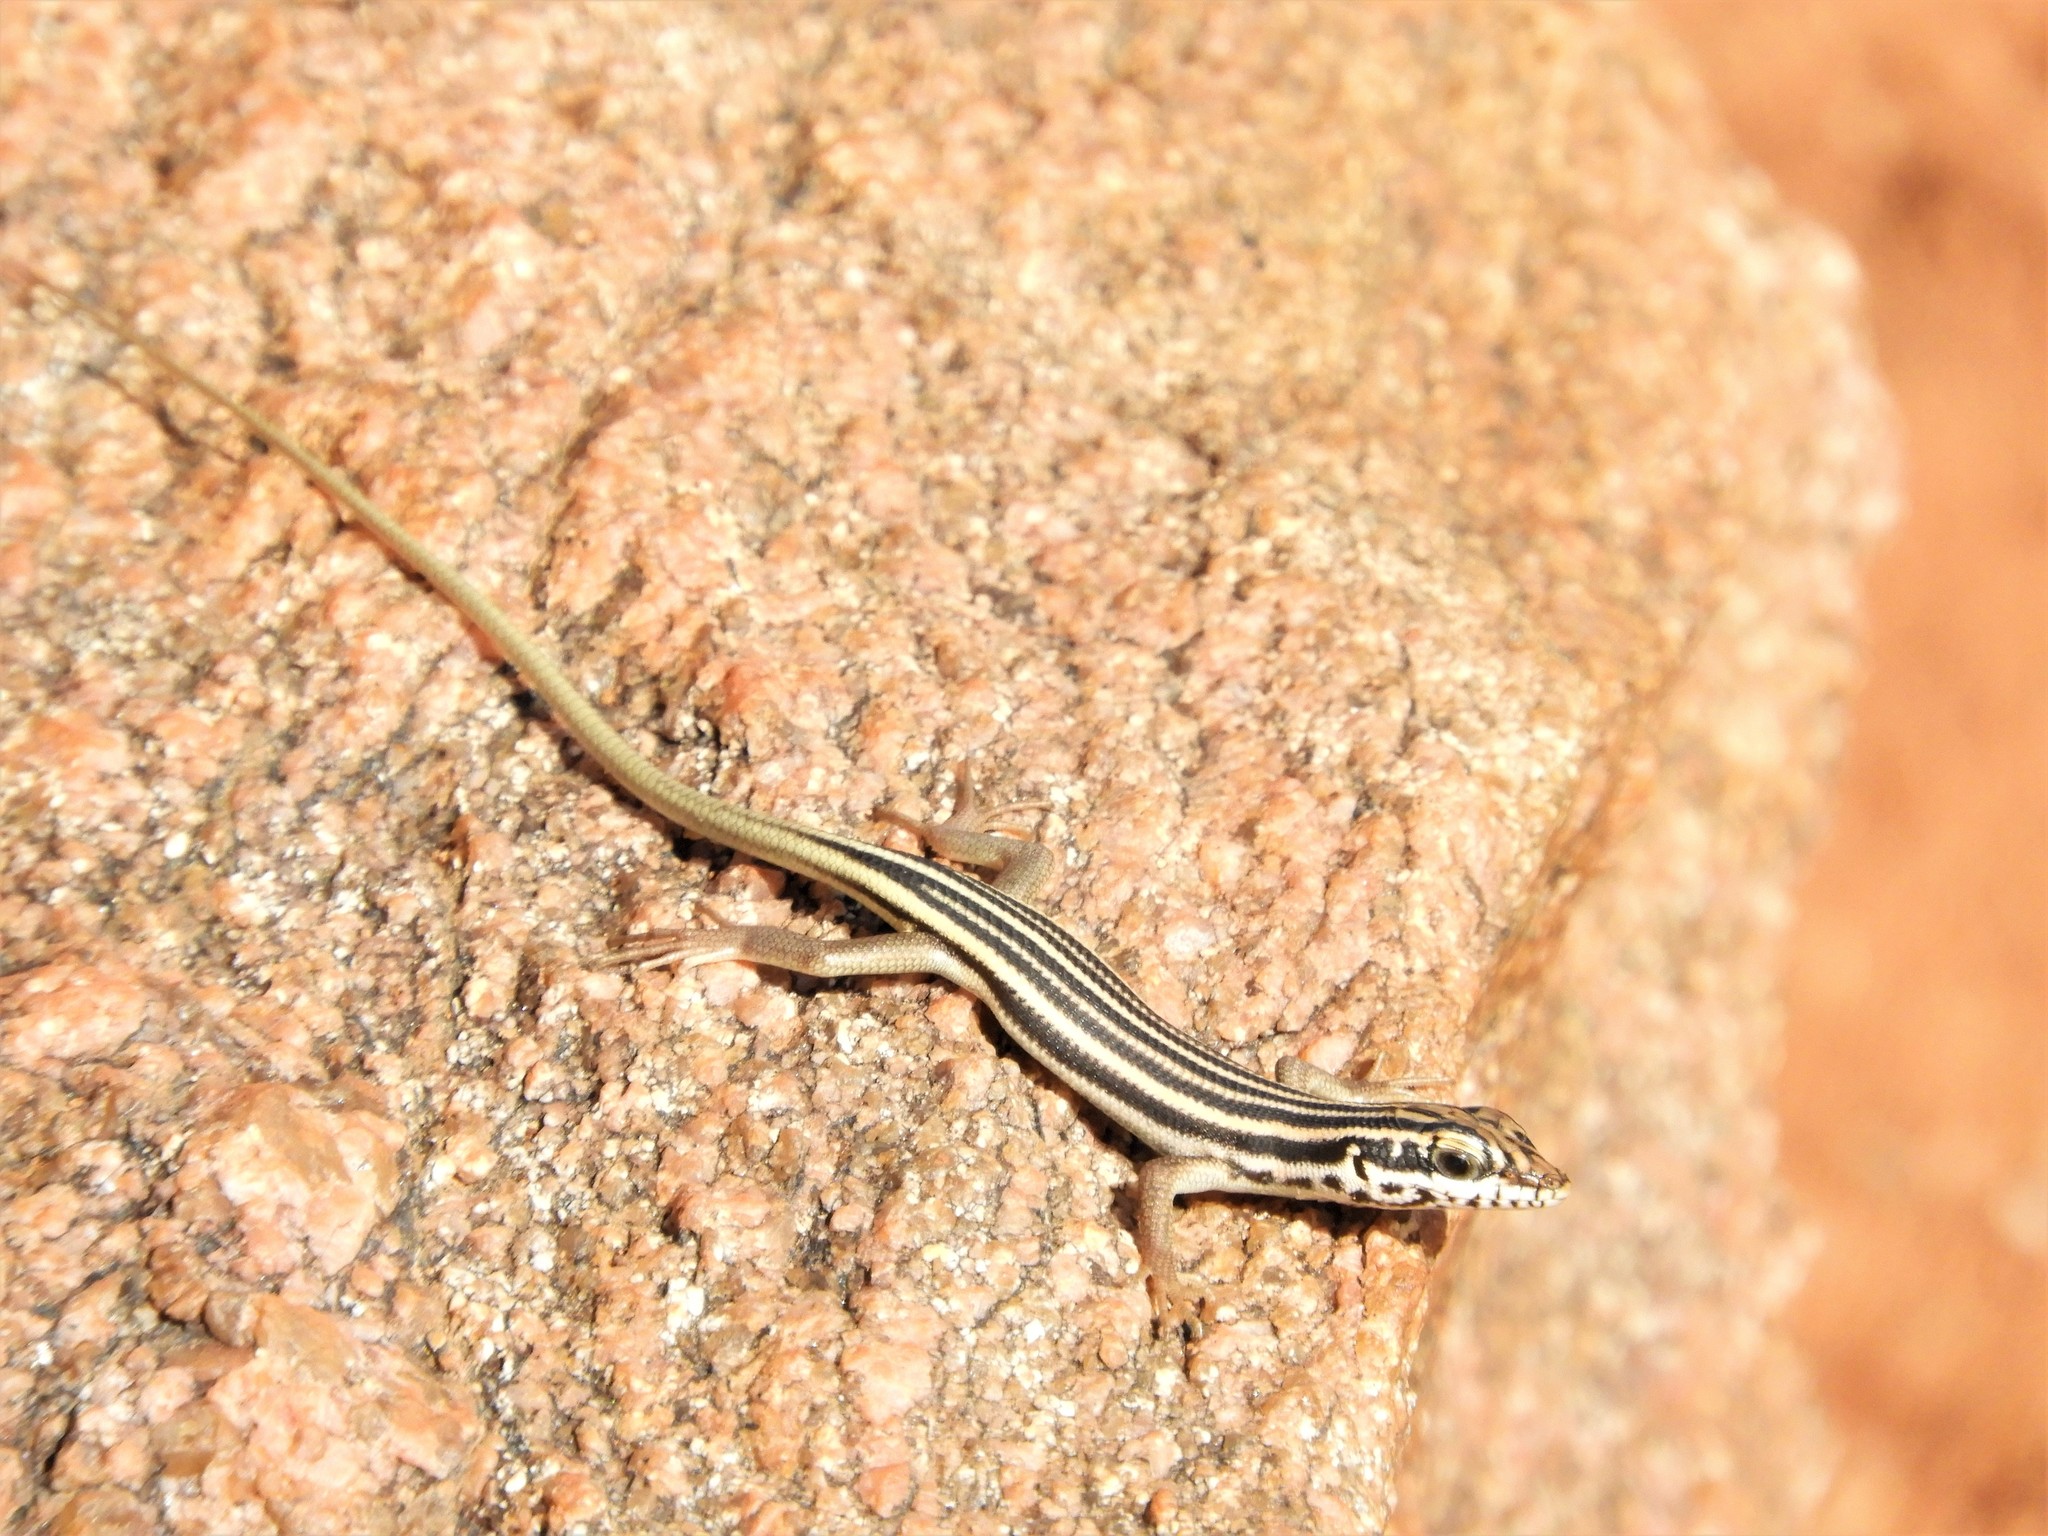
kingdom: Animalia
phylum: Chordata
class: Squamata
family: Scincidae
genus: Trachylepis
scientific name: Trachylepis sulcata
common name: Western rock skink
